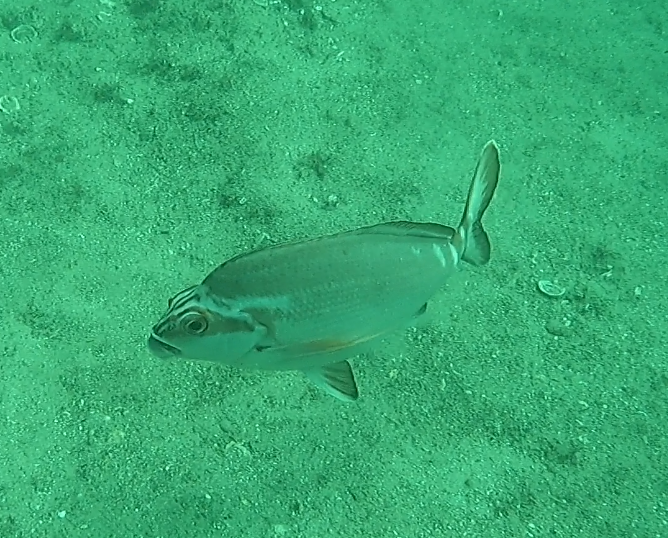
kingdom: Animalia
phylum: Chordata
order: Perciformes
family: Latridae
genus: Morwong
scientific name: Morwong fuscus
